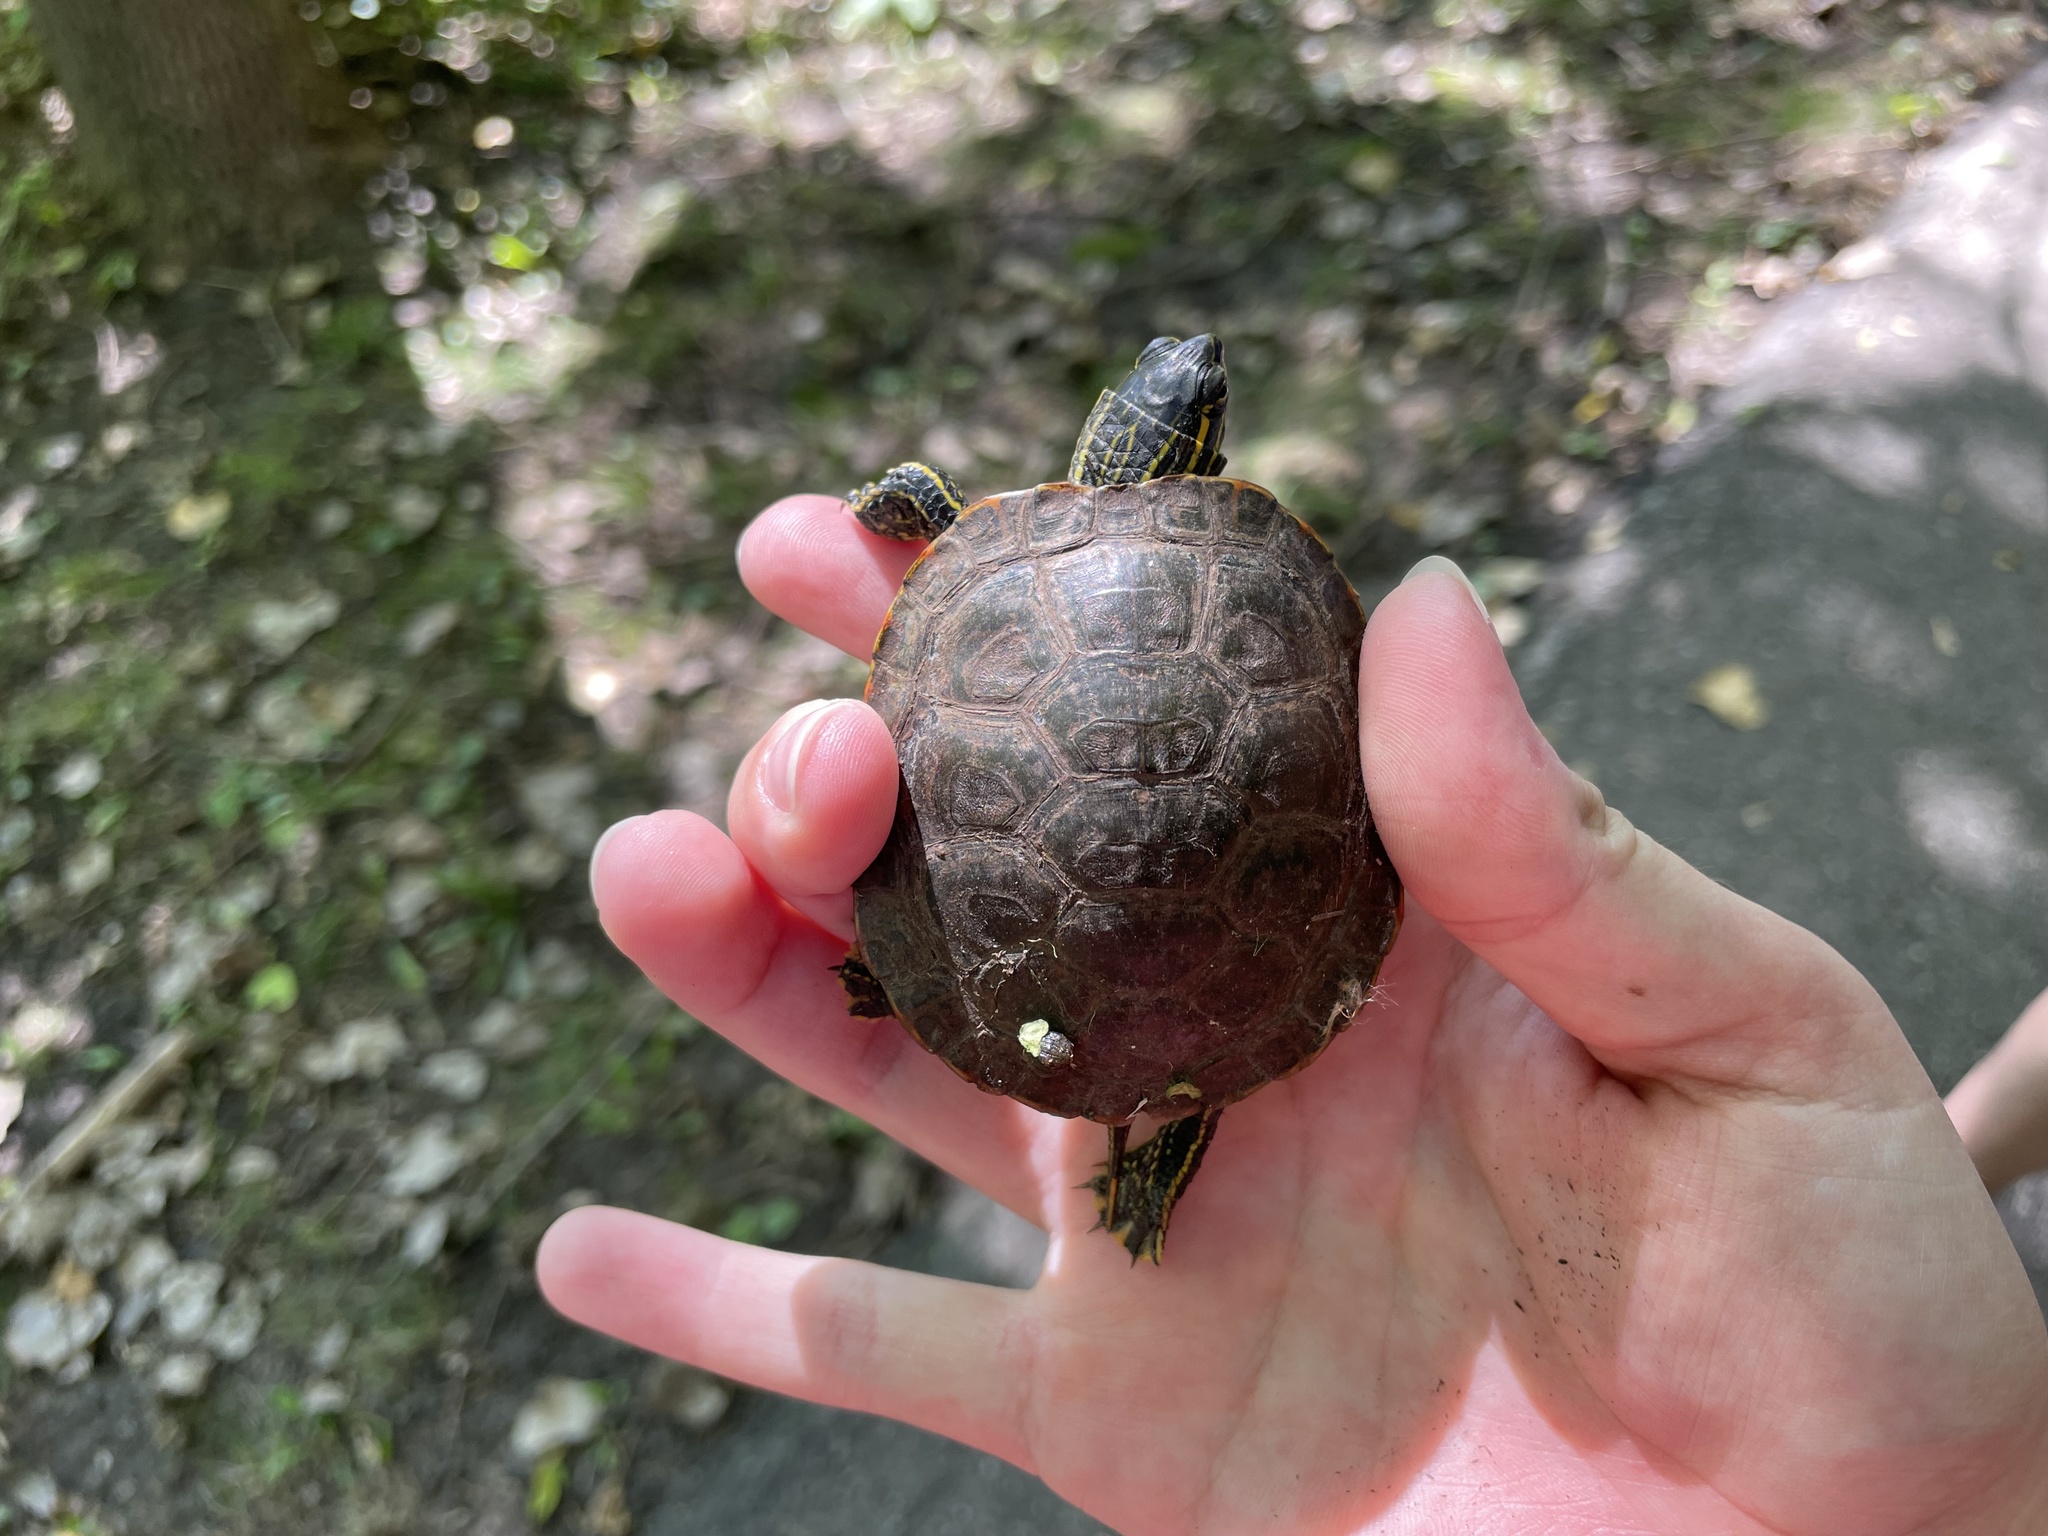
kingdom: Animalia
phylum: Chordata
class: Testudines
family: Emydidae
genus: Chrysemys
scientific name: Chrysemys picta
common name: Painted turtle
